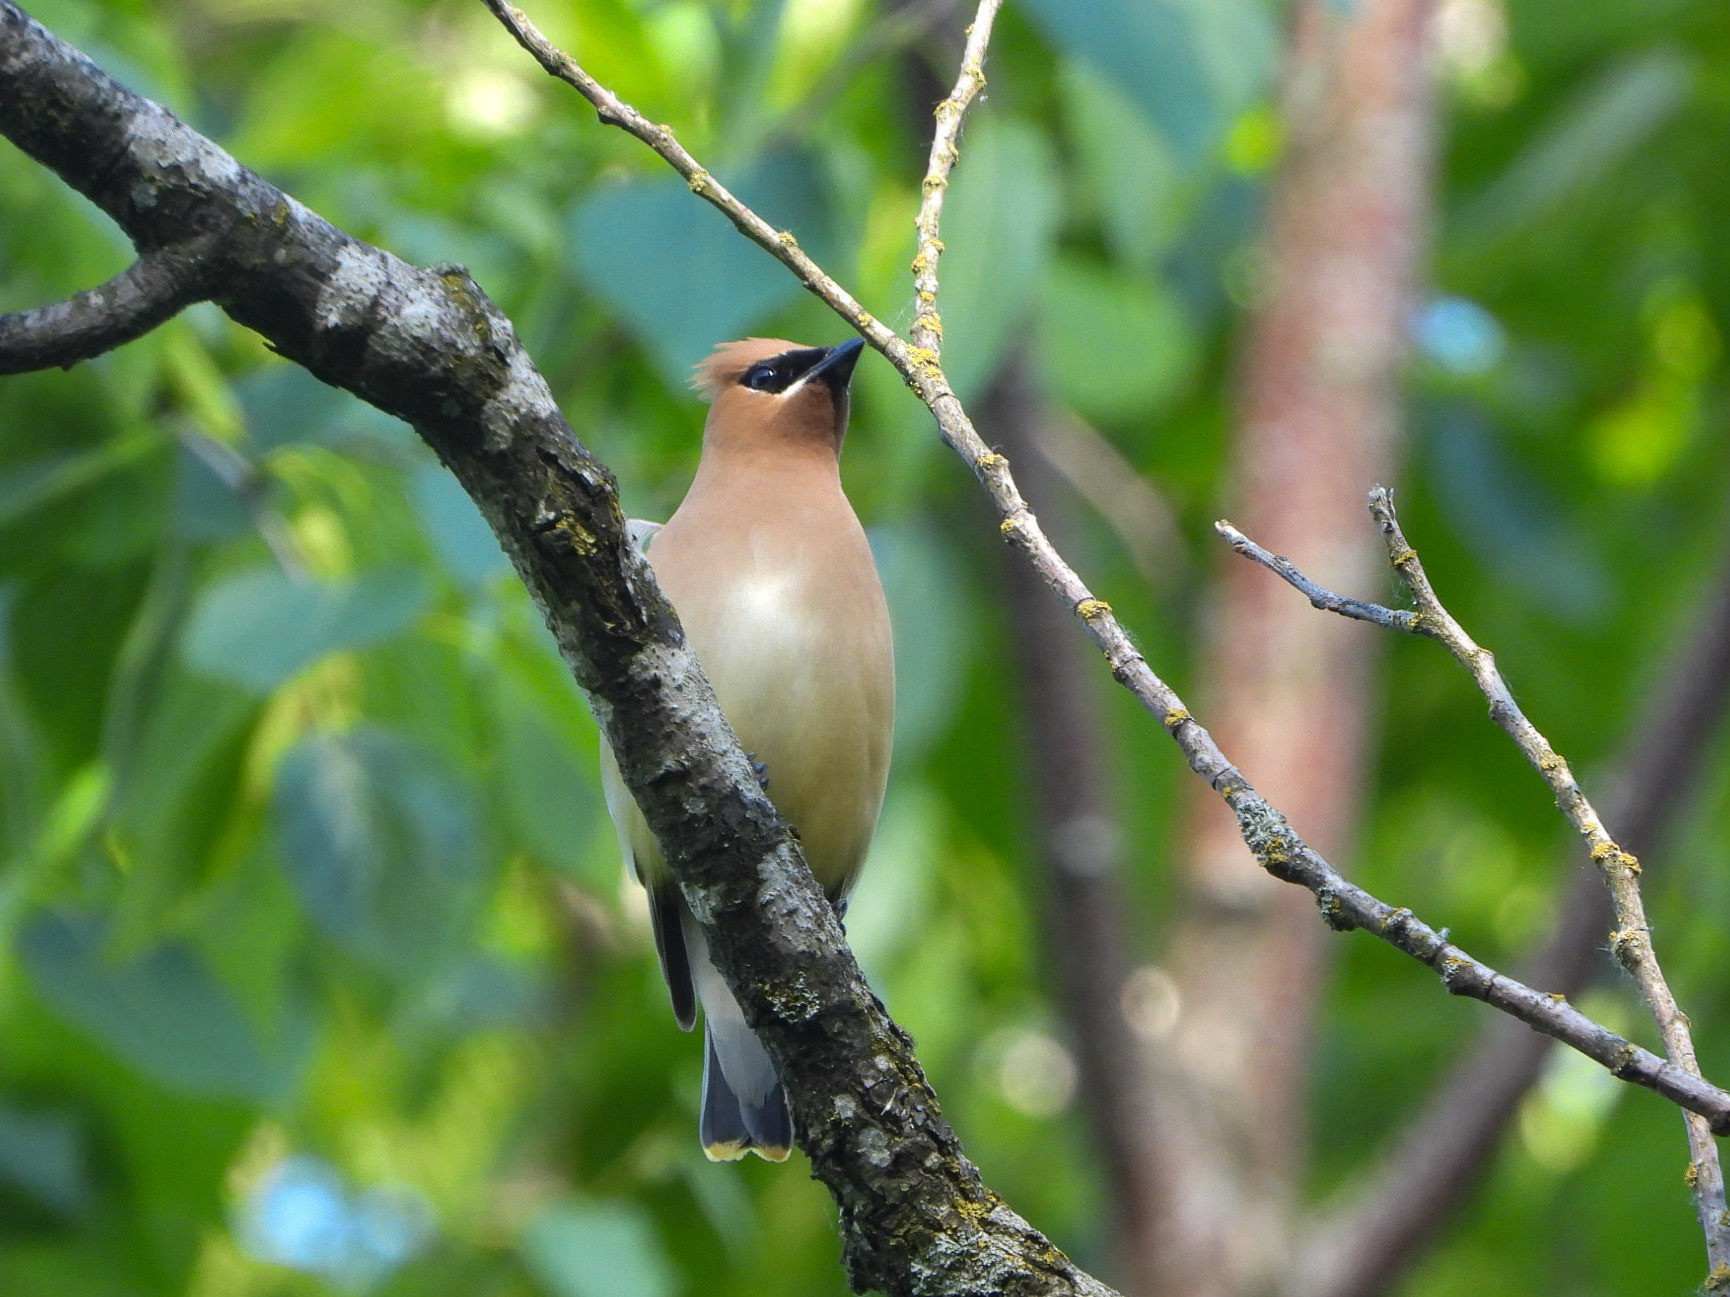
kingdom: Animalia
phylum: Chordata
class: Aves
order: Passeriformes
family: Bombycillidae
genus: Bombycilla
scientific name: Bombycilla cedrorum
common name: Cedar waxwing
